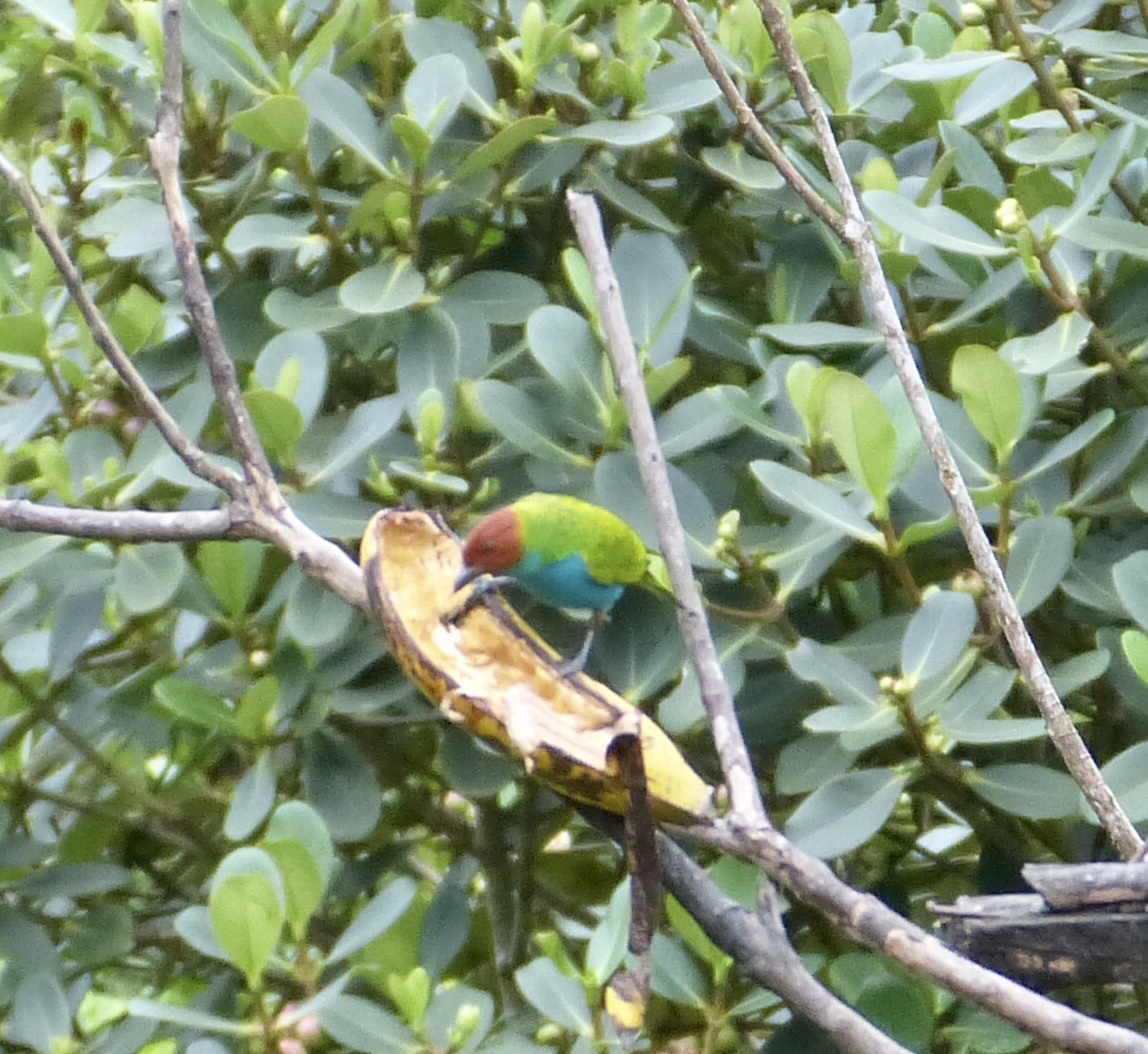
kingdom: Animalia
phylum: Chordata
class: Aves
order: Passeriformes
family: Thraupidae
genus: Tangara
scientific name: Tangara gyrola
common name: Bay-headed tanager
